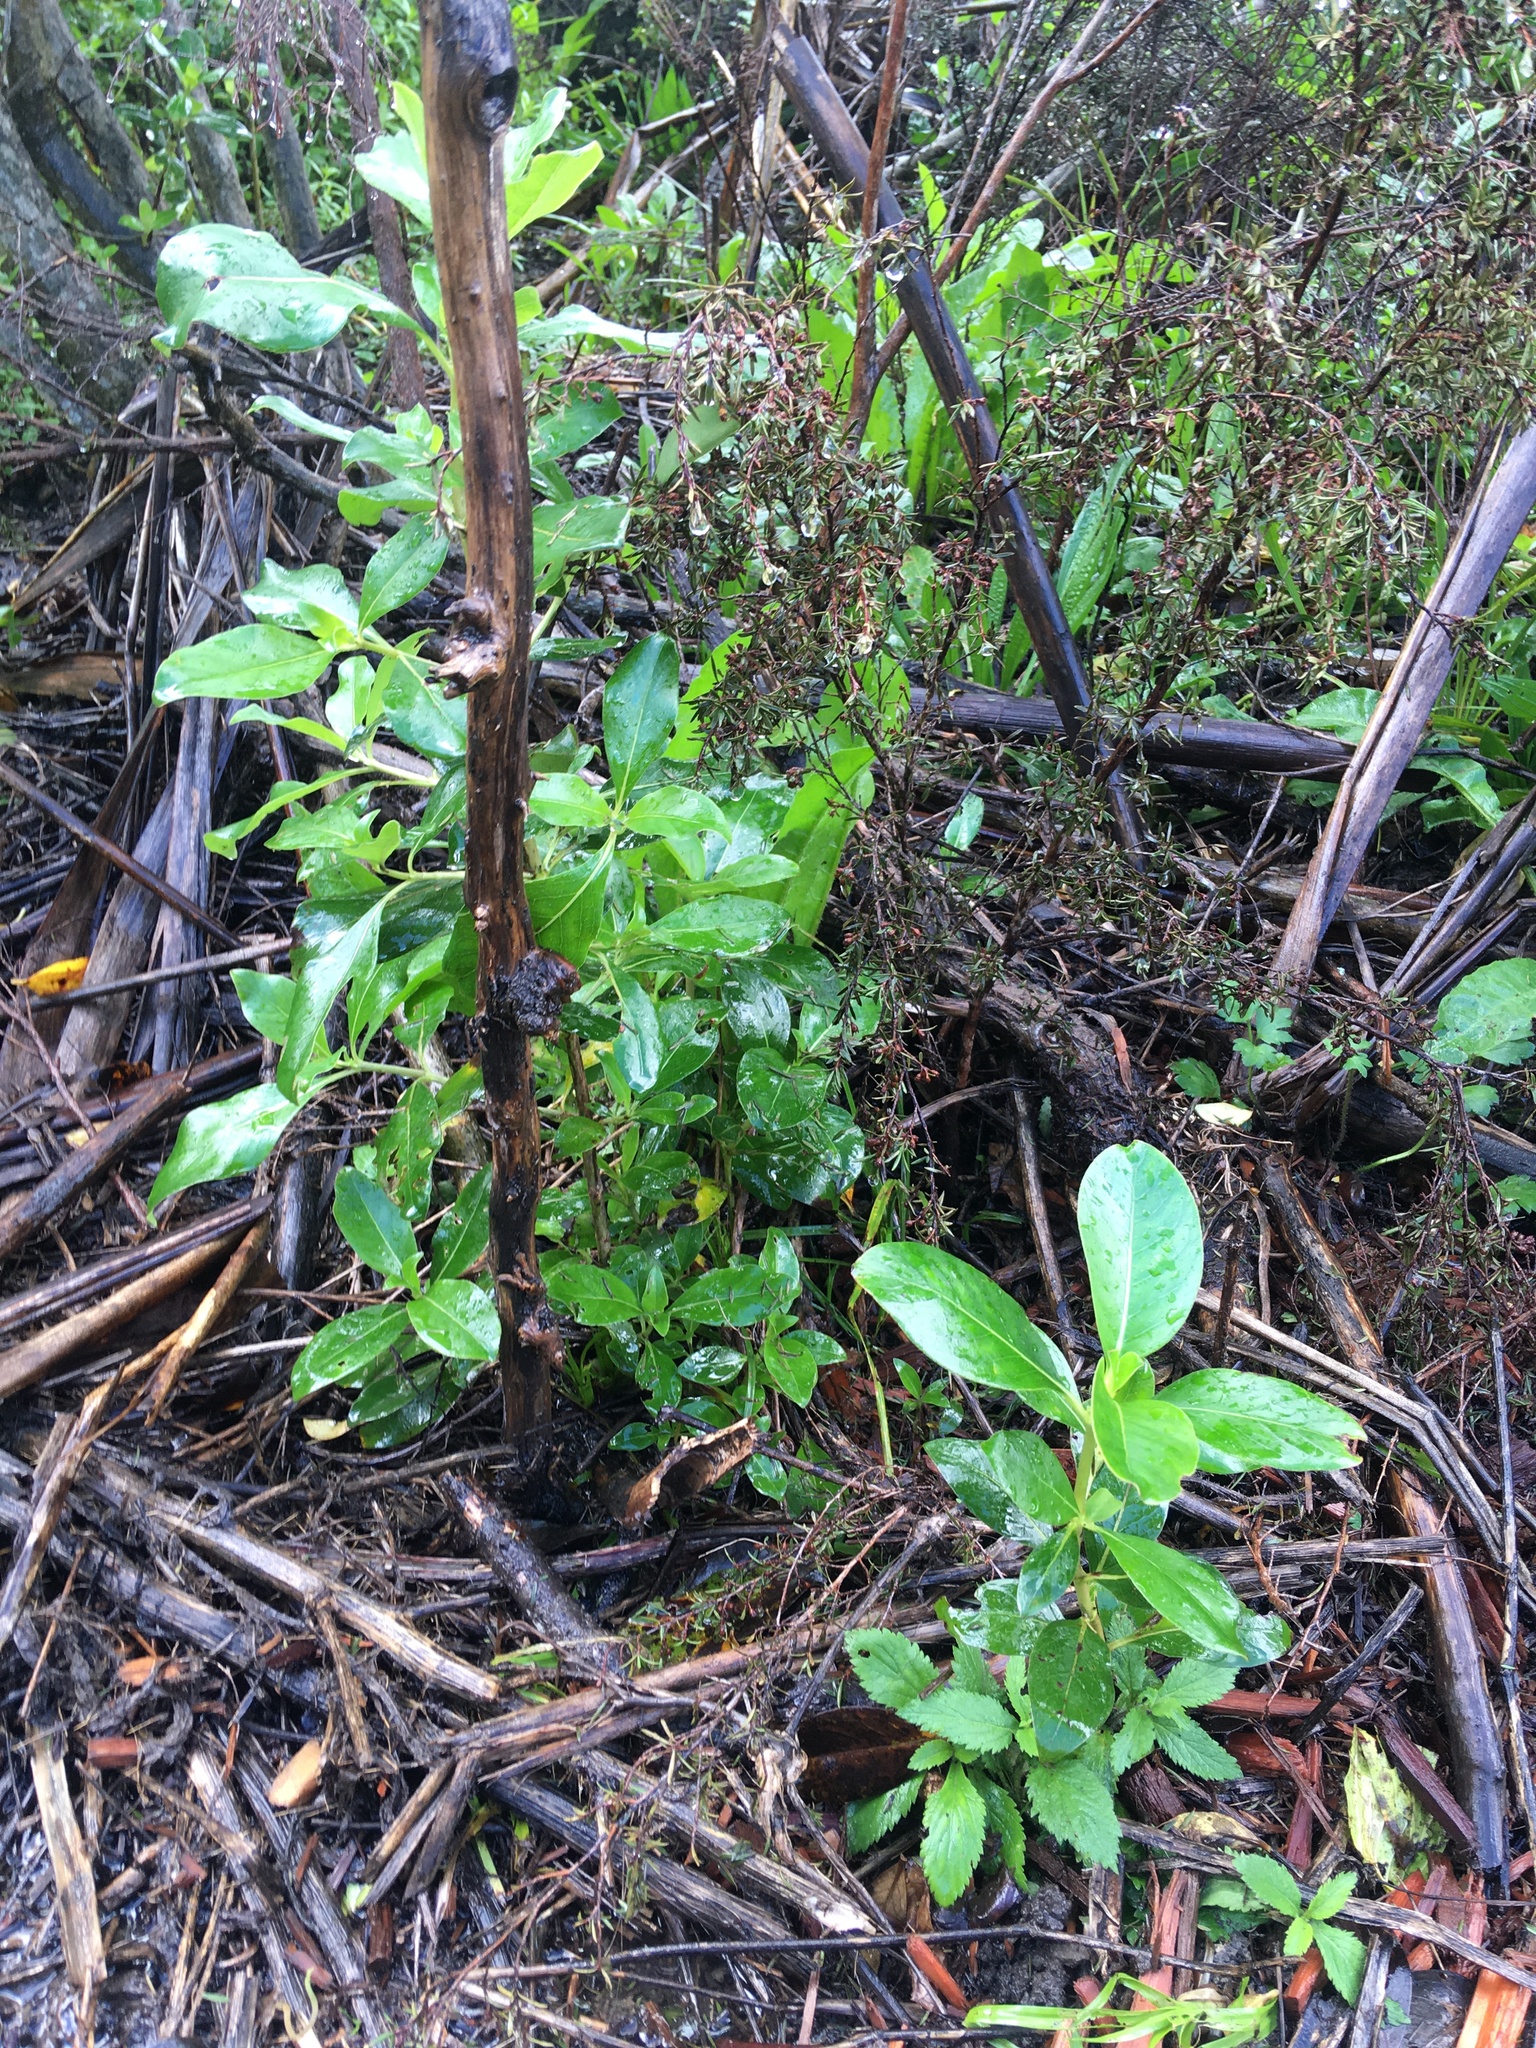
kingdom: Plantae
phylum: Tracheophyta
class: Magnoliopsida
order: Gentianales
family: Rubiaceae
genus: Coprosma
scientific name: Coprosma robusta
